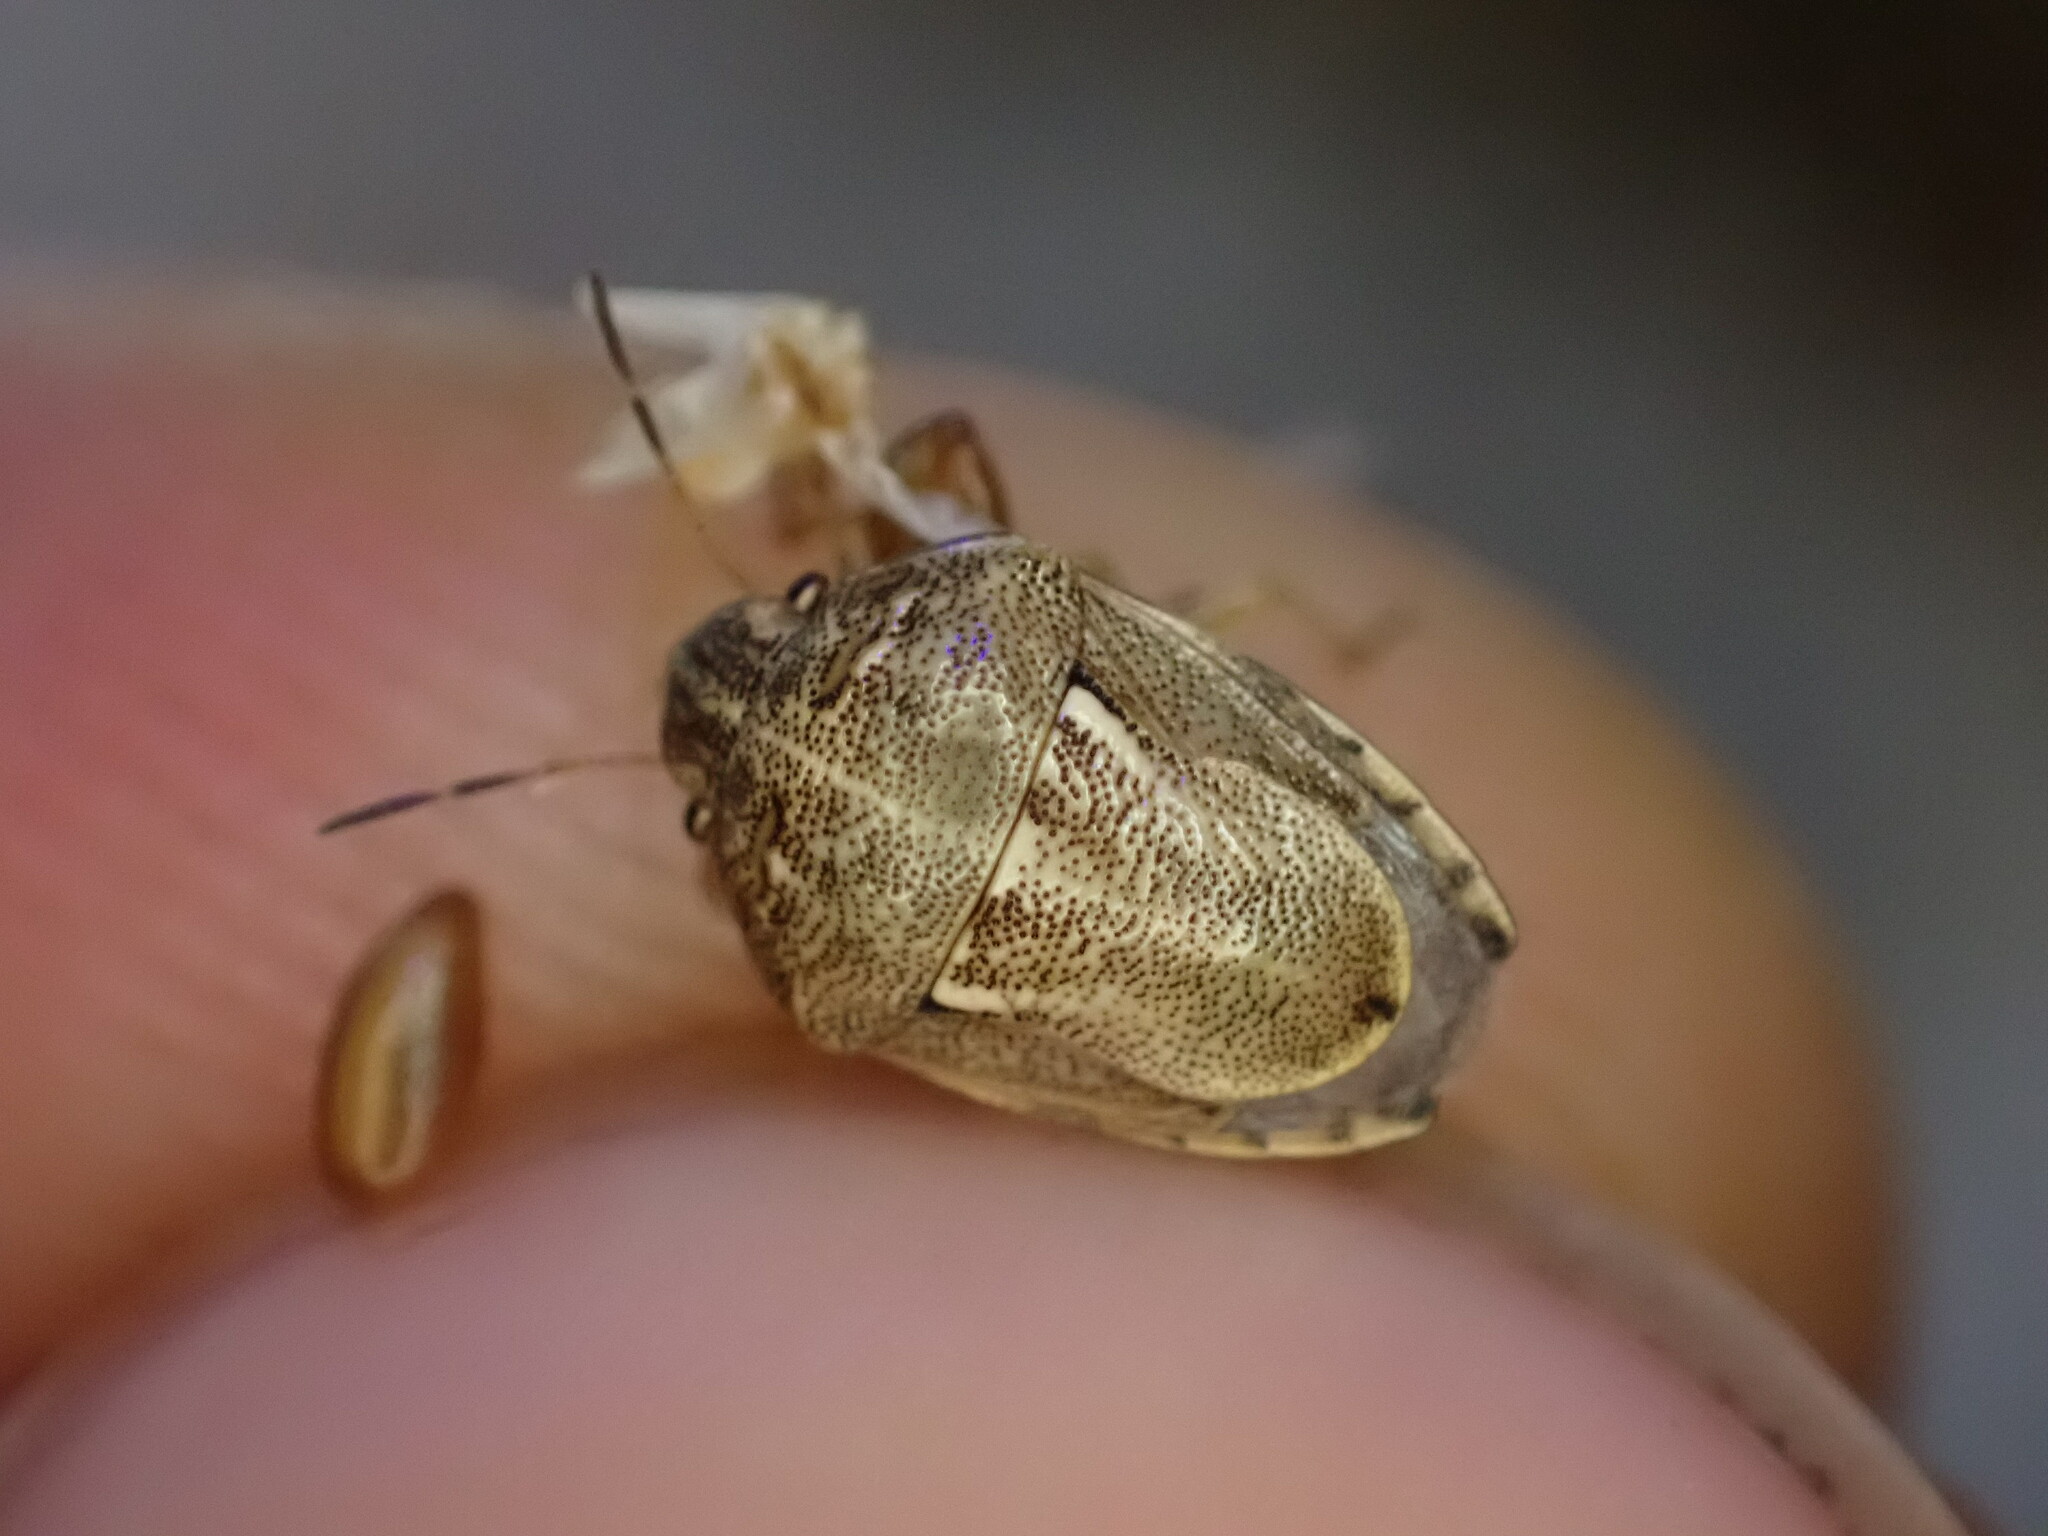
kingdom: Animalia
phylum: Arthropoda
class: Insecta
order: Hemiptera
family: Pentatomidae
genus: Neottiglossa
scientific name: Neottiglossa leporina
